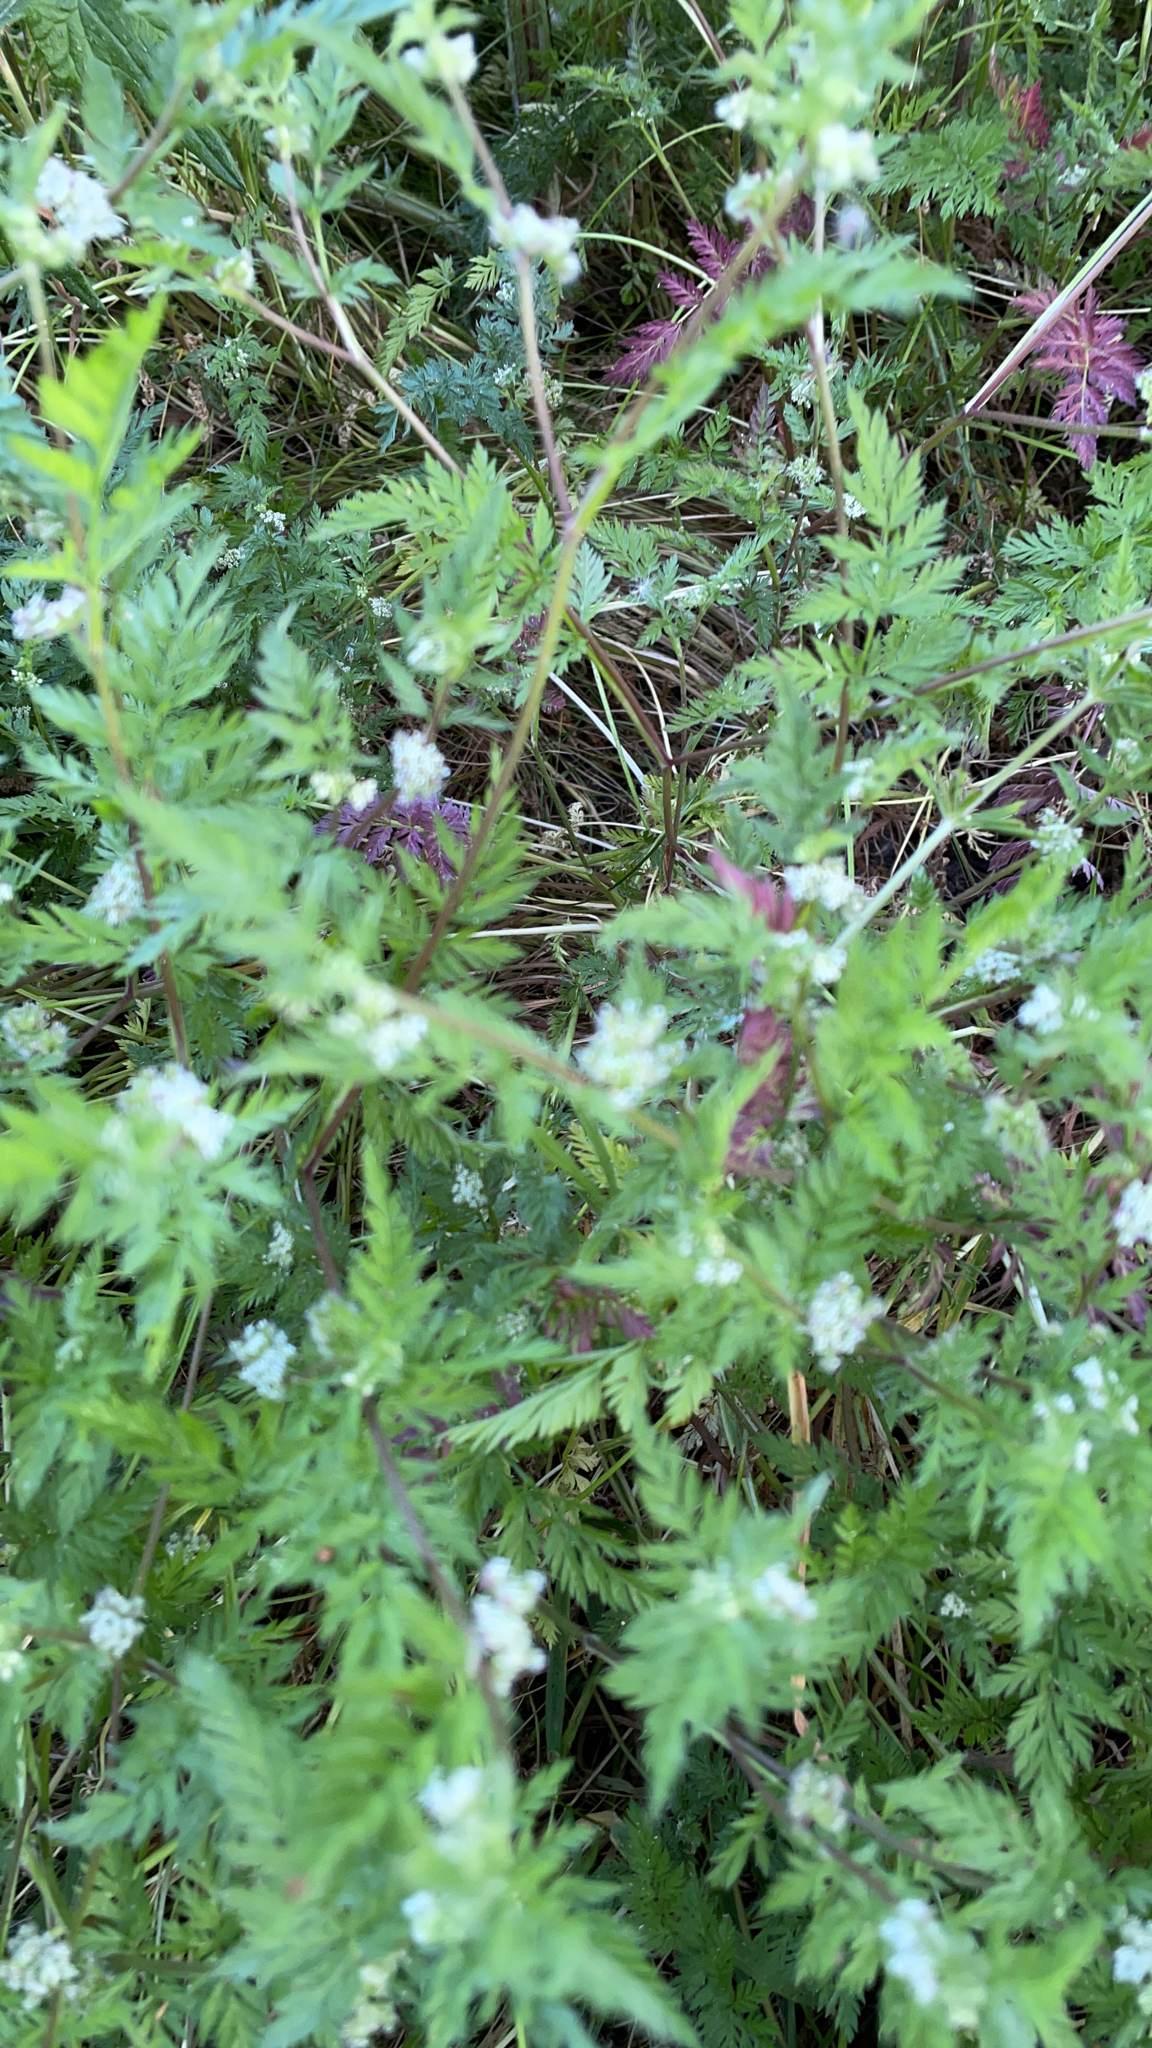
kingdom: Plantae
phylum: Tracheophyta
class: Magnoliopsida
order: Apiales
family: Apiaceae
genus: Torilis
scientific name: Torilis nodosa
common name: Knotted hedge-parsley
